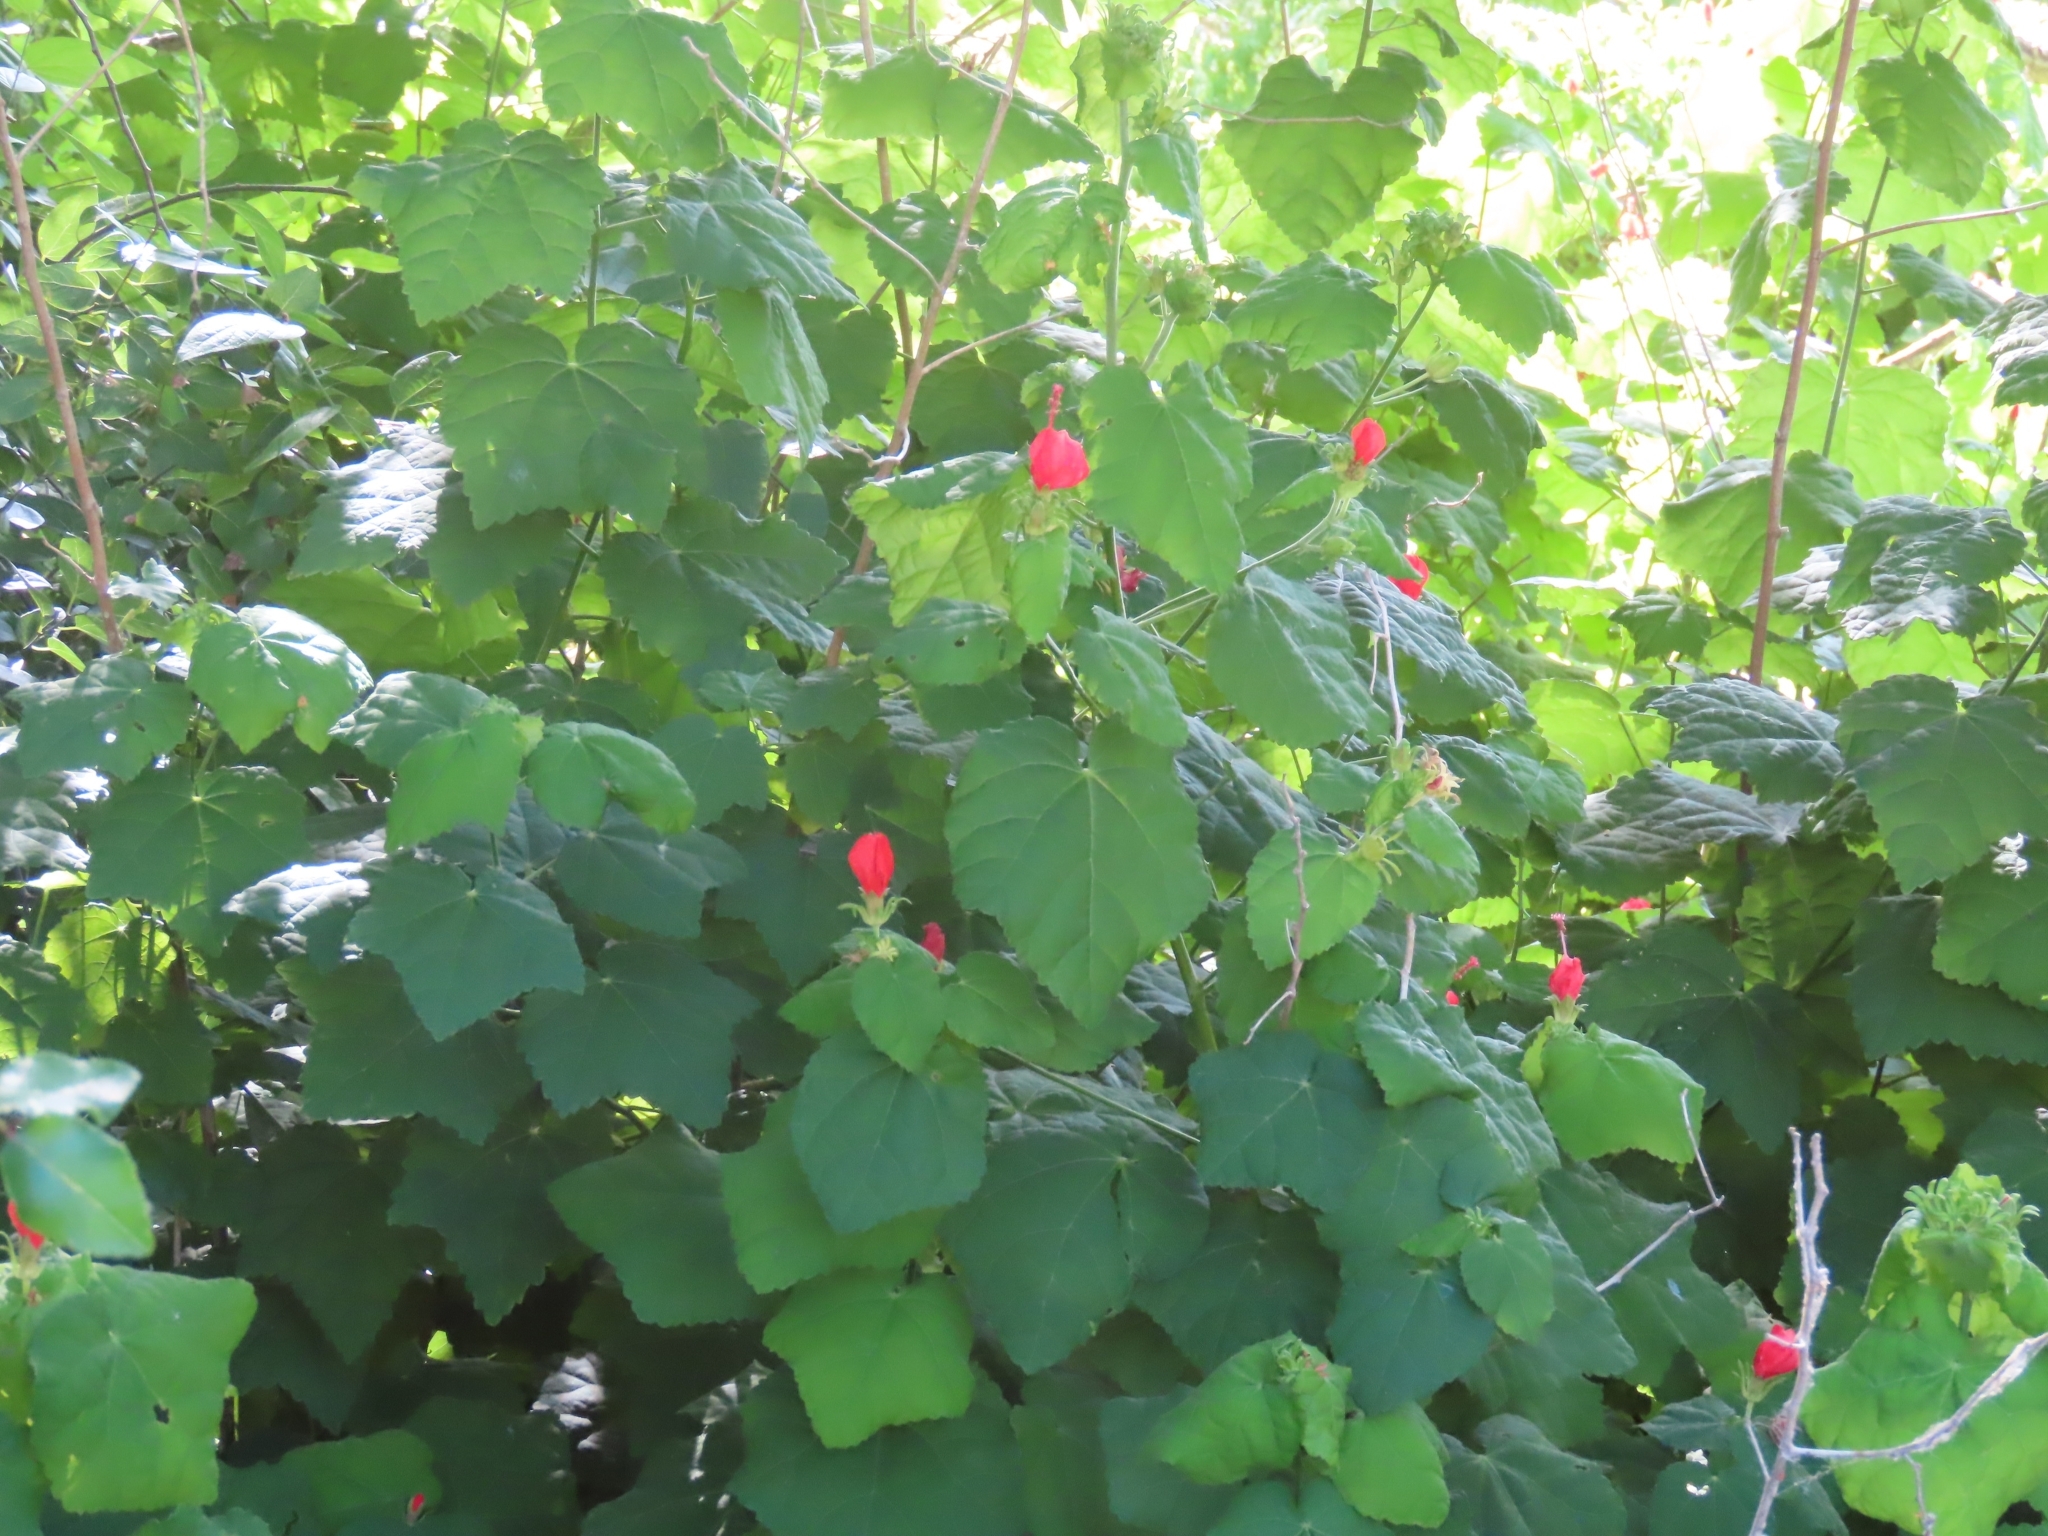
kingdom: Plantae
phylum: Tracheophyta
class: Magnoliopsida
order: Malvales
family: Malvaceae
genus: Malvaviscus
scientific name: Malvaviscus arboreus
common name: Wax mallow
